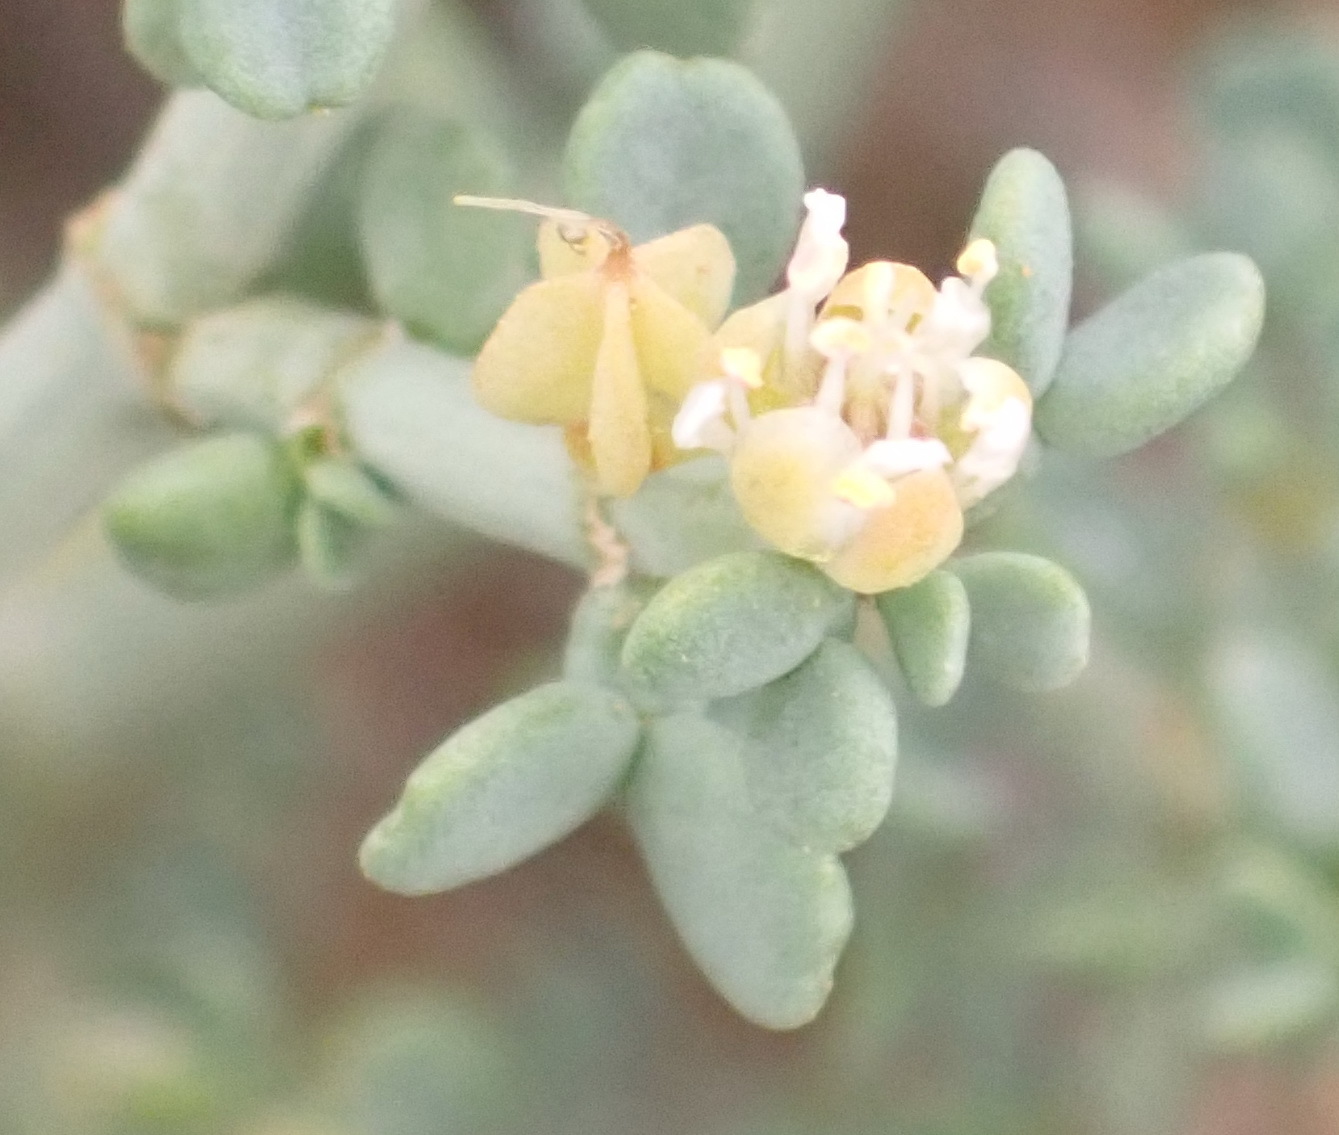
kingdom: Plantae
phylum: Tracheophyta
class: Magnoliopsida
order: Zygophyllales
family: Zygophyllaceae
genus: Tetraena
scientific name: Tetraena chrysopteros
